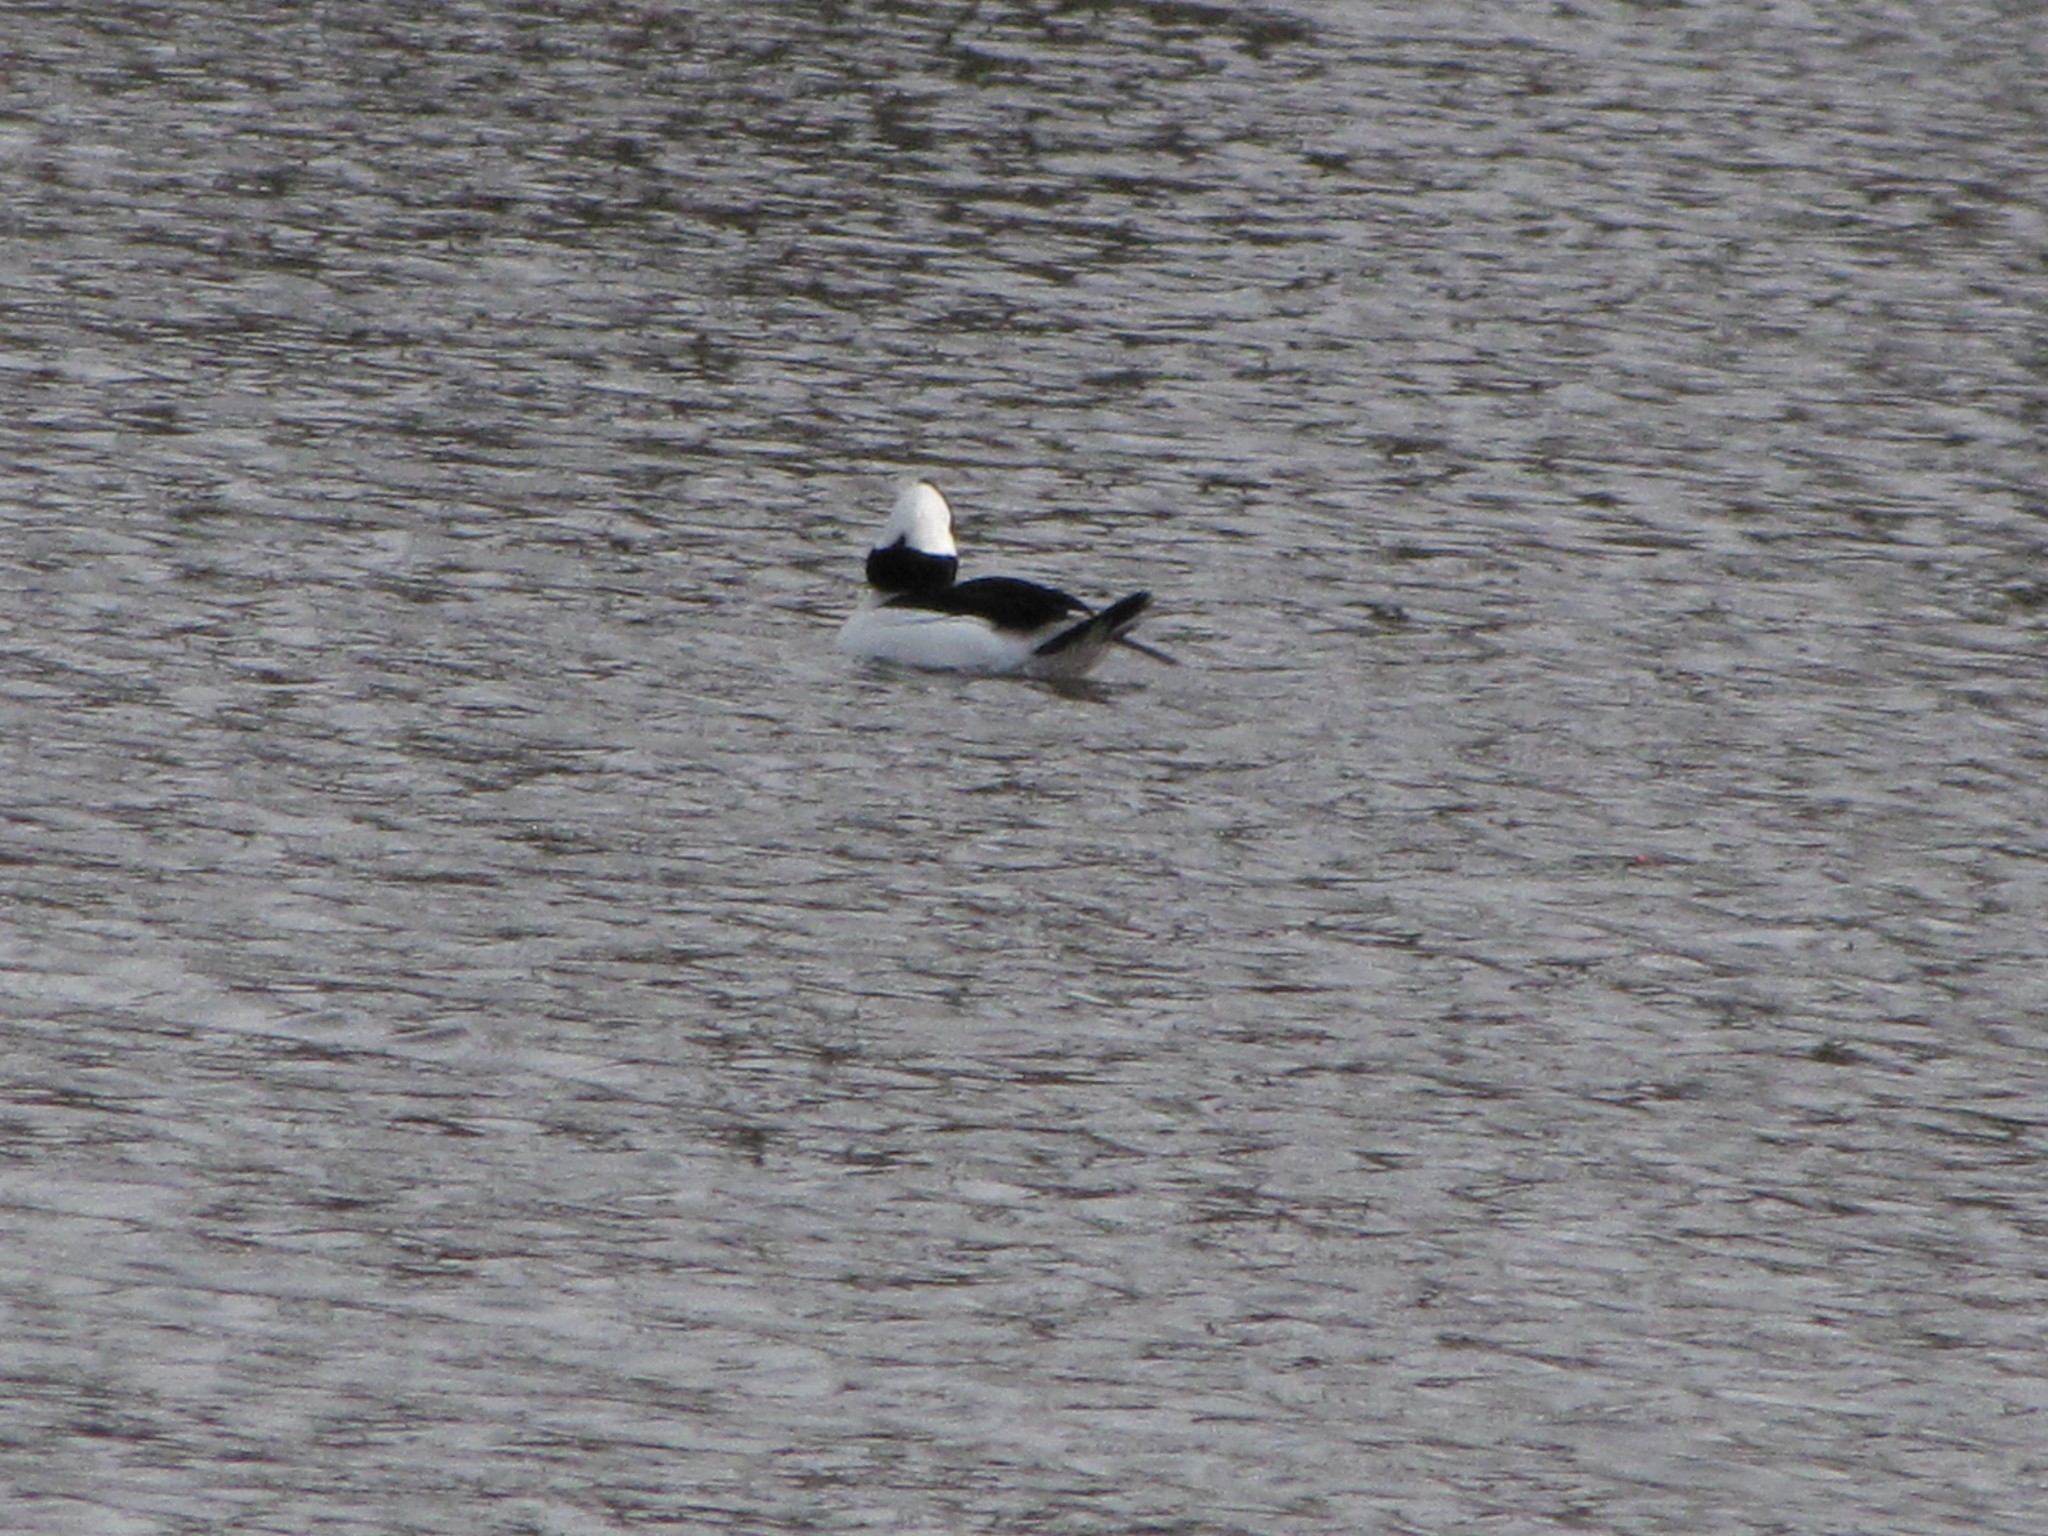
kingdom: Animalia
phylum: Chordata
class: Aves
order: Anseriformes
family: Anatidae
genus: Bucephala
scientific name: Bucephala albeola
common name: Bufflehead
